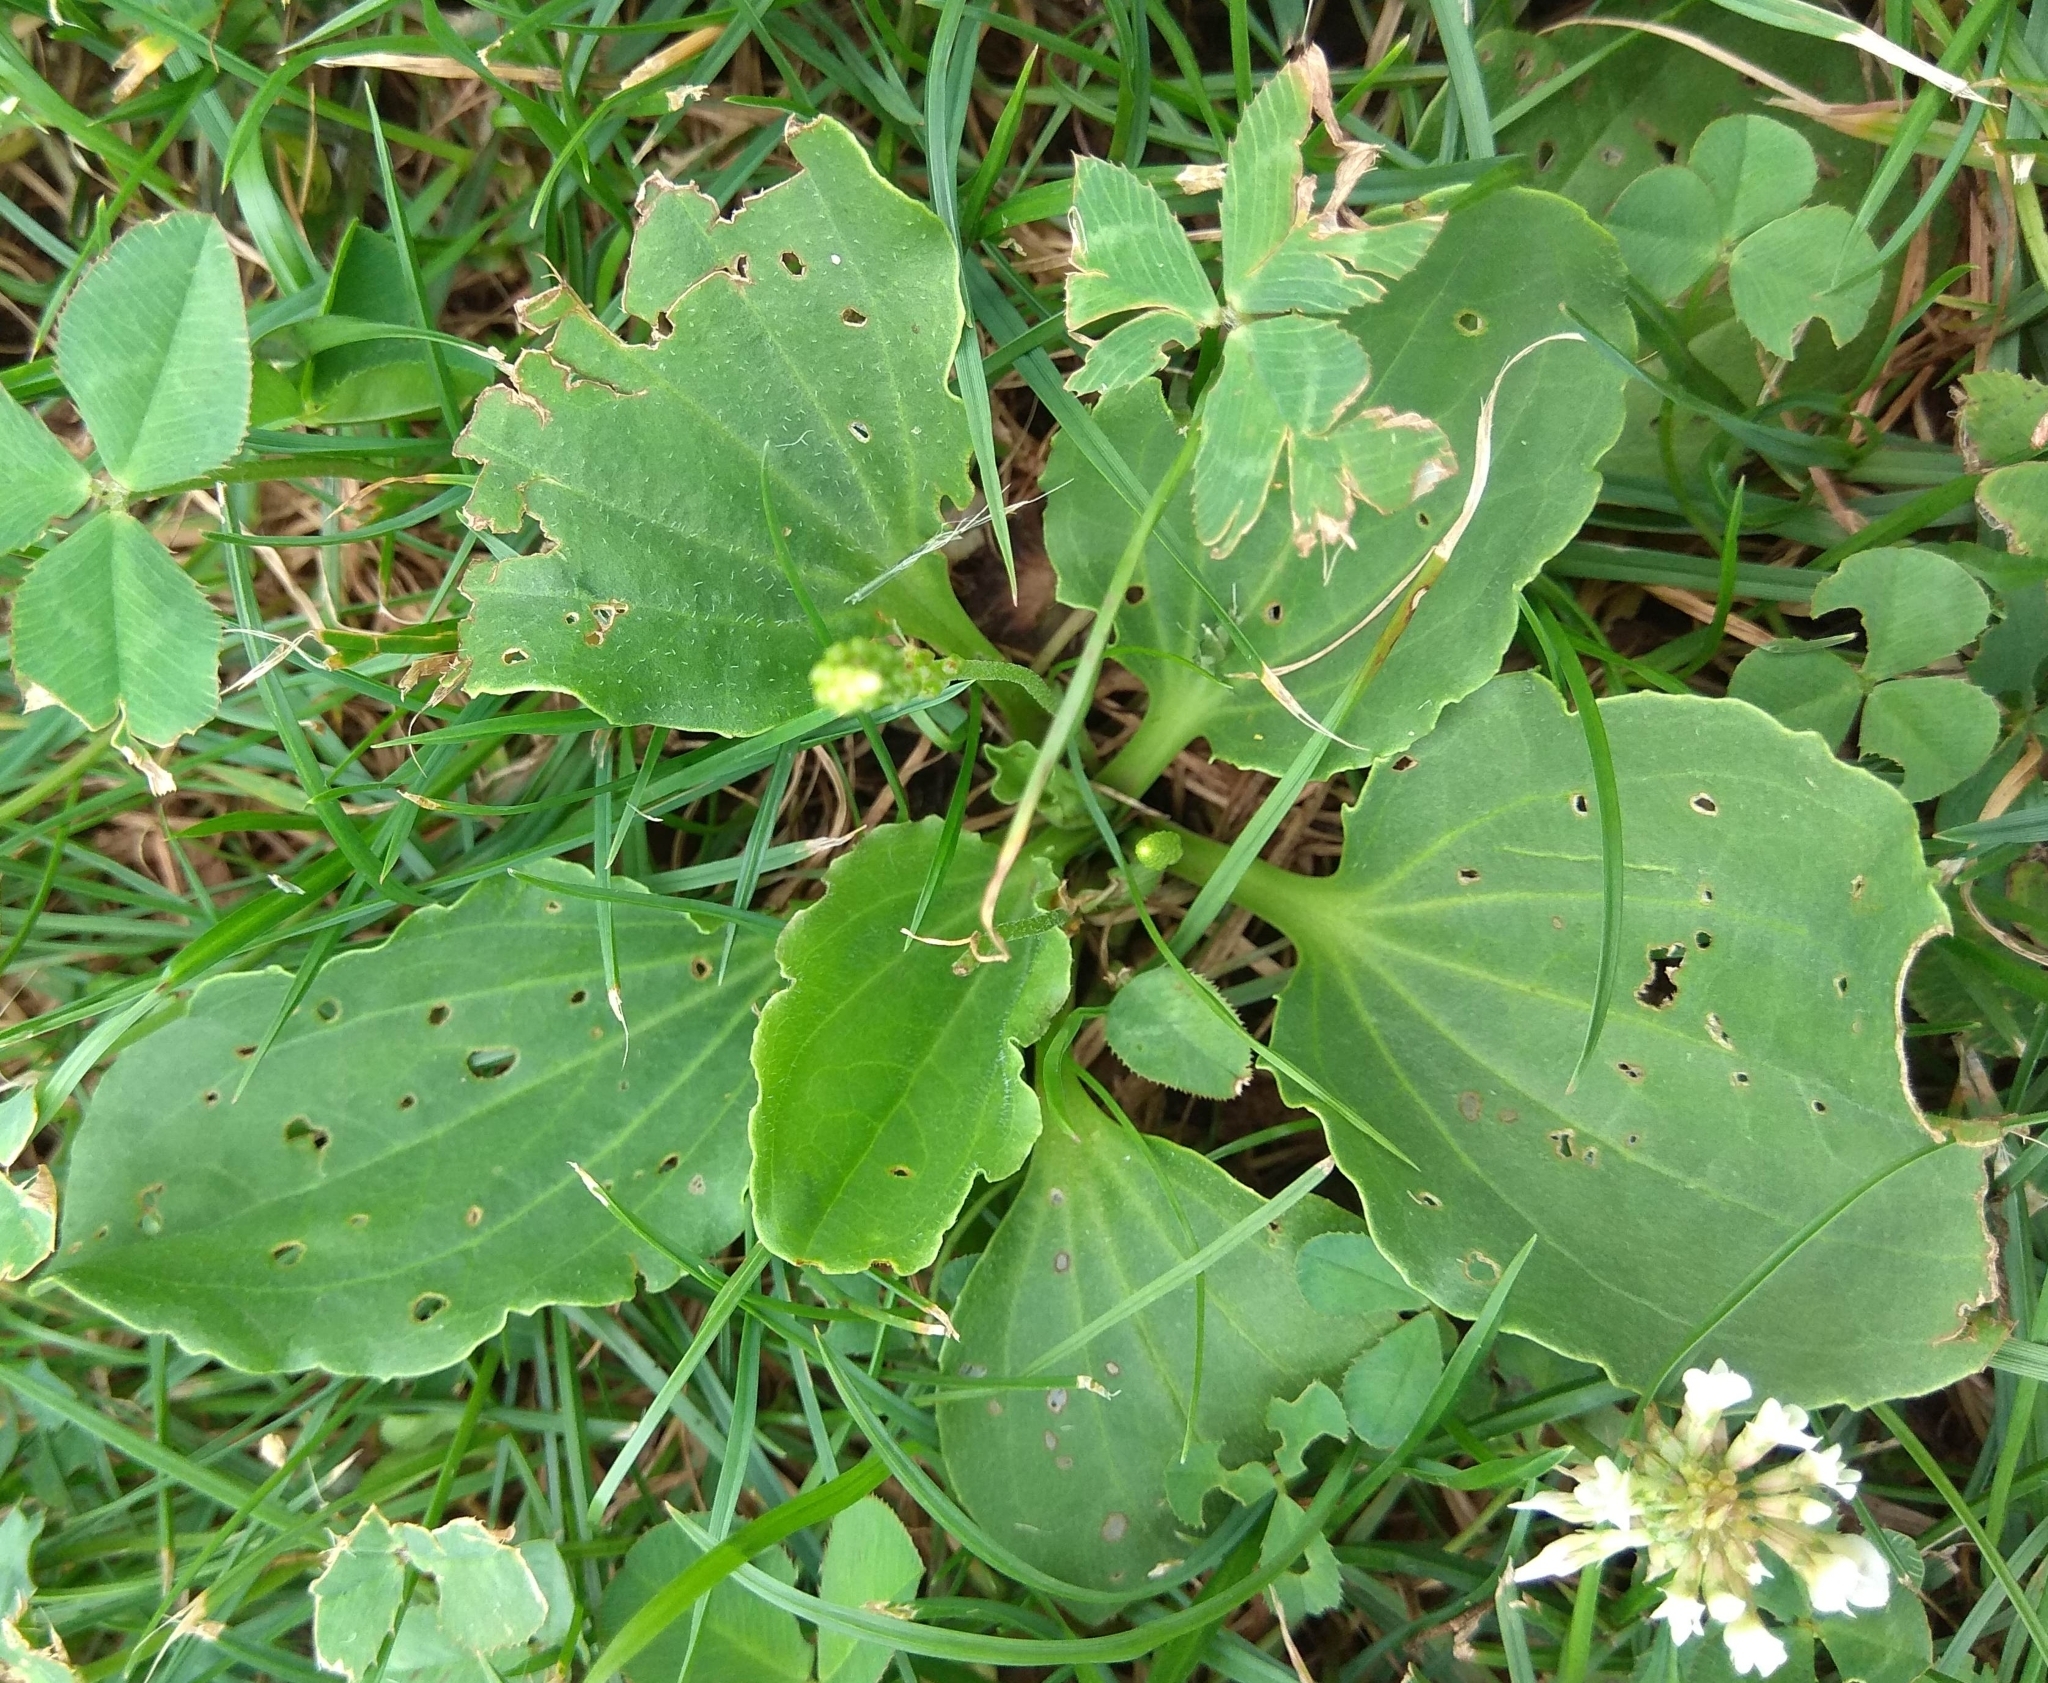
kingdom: Plantae
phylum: Tracheophyta
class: Magnoliopsida
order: Lamiales
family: Plantaginaceae
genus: Plantago
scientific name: Plantago major
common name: Common plantain
